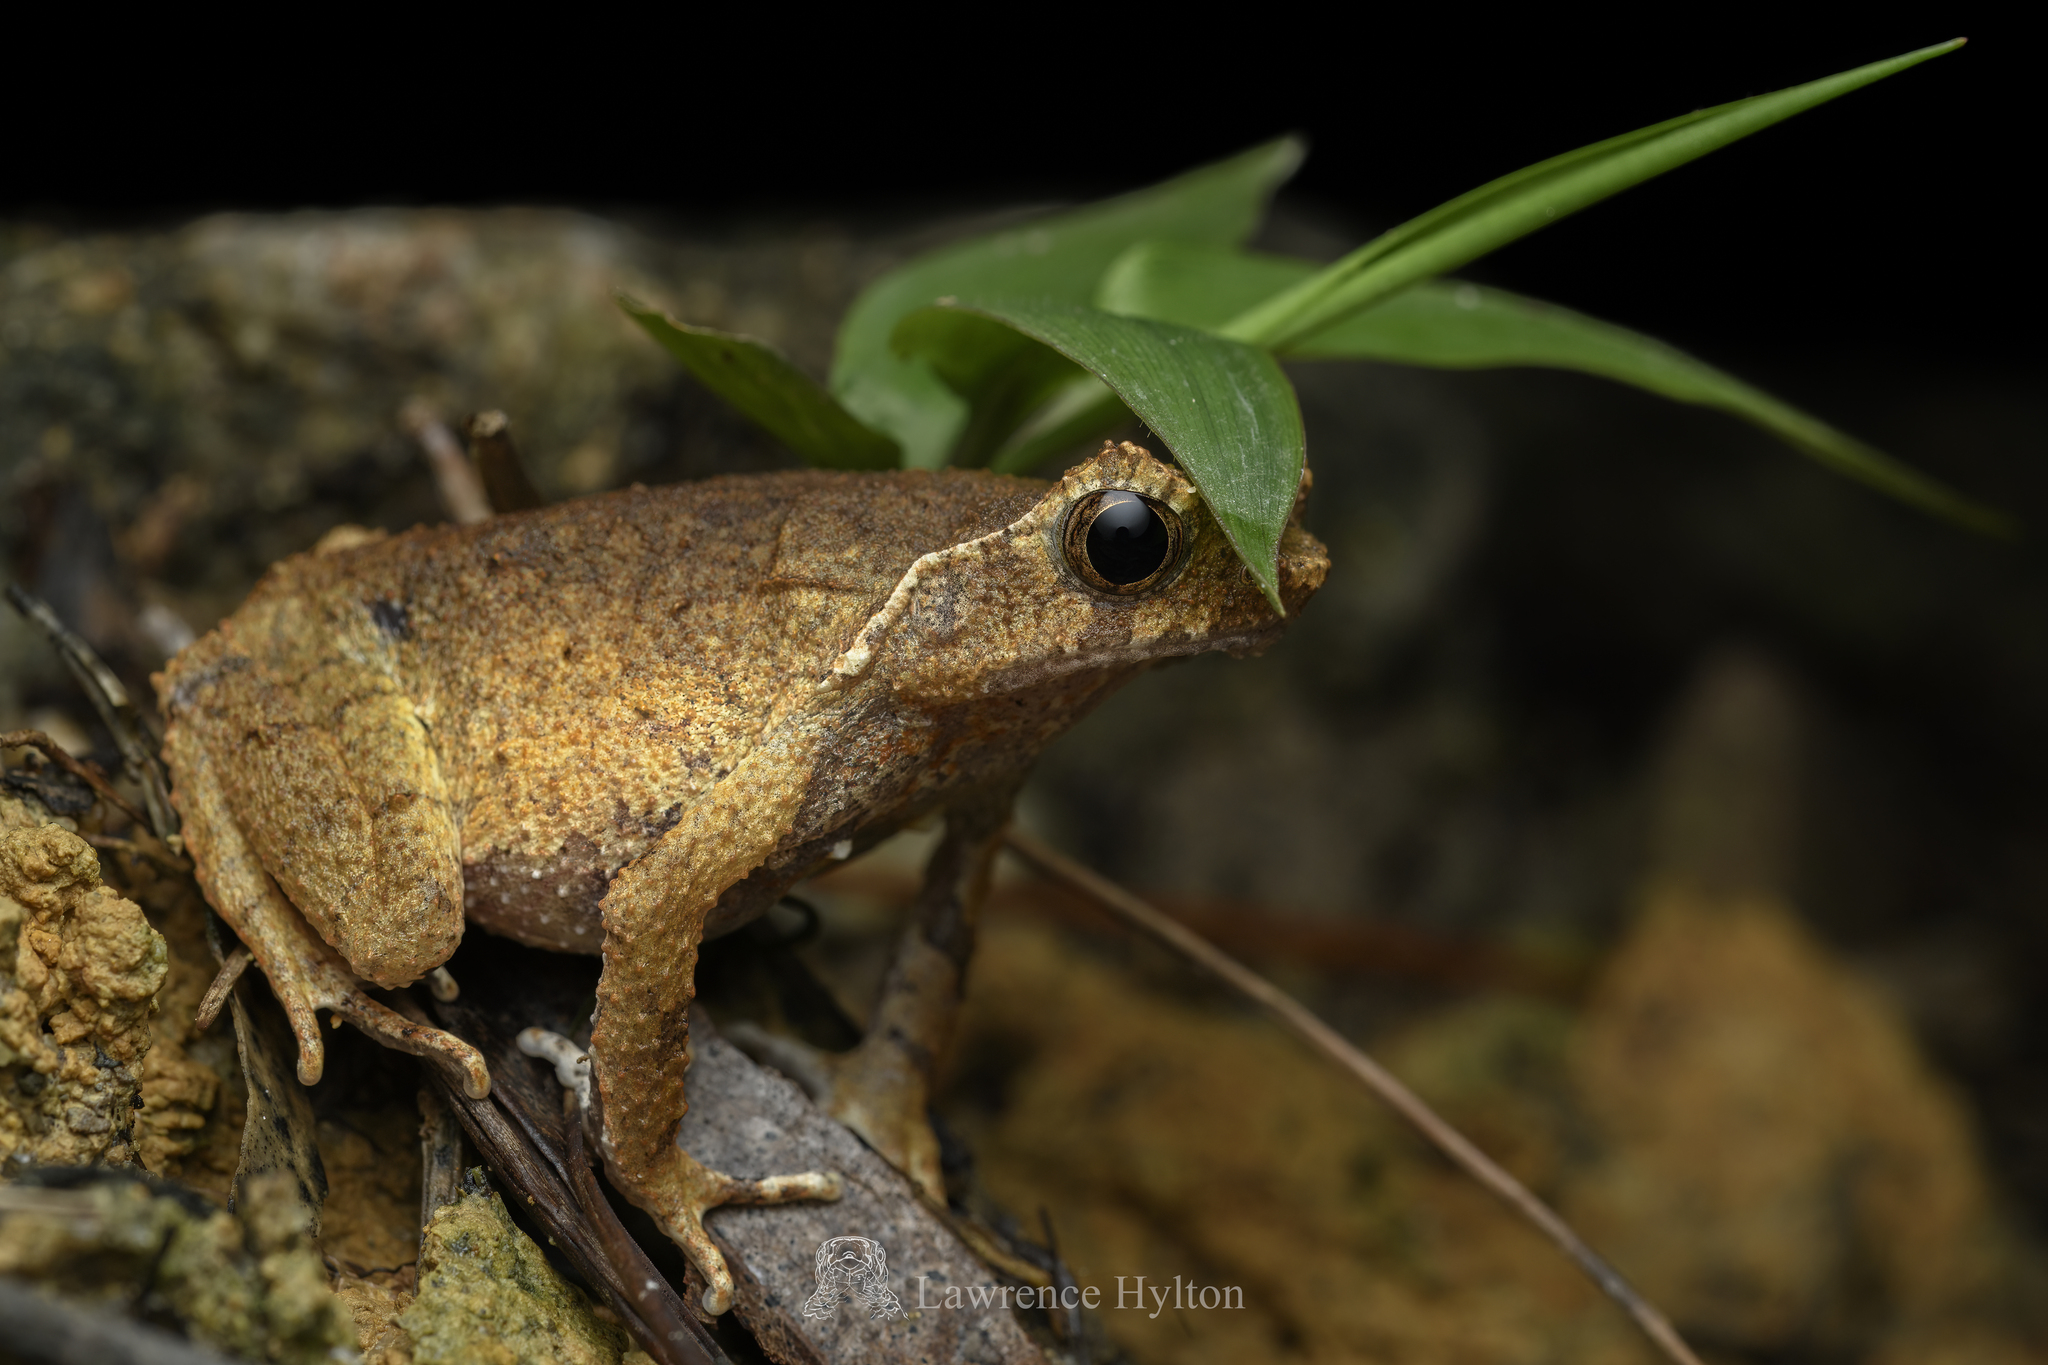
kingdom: Animalia
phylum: Chordata
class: Amphibia
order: Anura
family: Megophryidae
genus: Megophrys
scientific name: Megophrys brachykolos
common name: Short-legged horned toad
